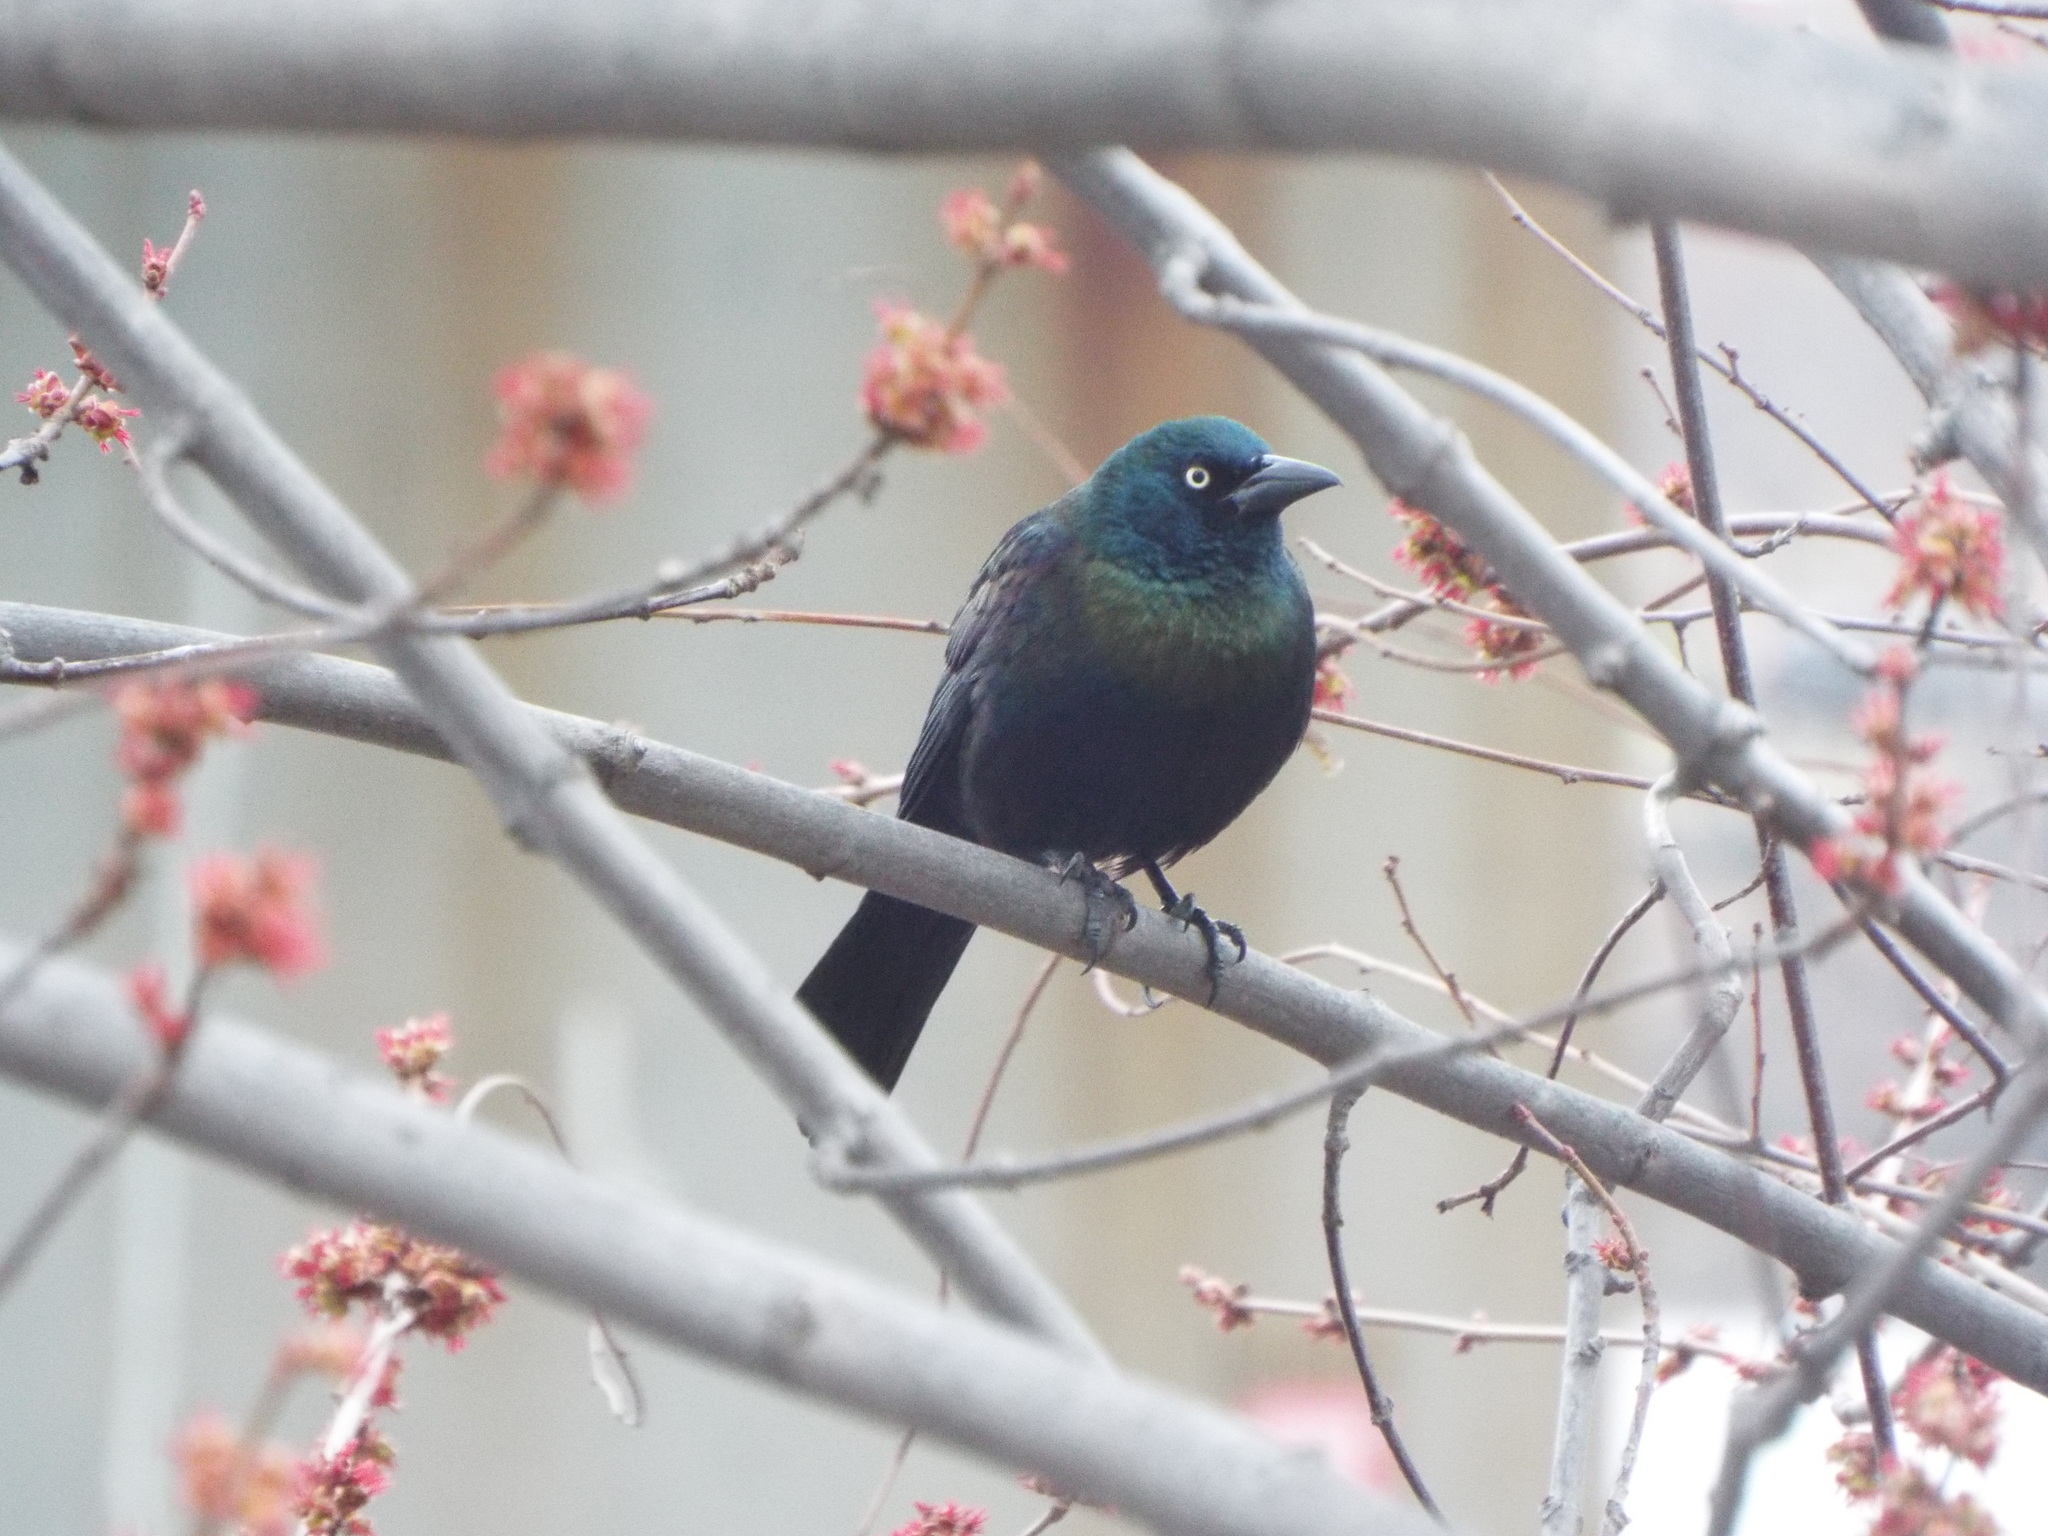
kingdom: Animalia
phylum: Chordata
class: Aves
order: Passeriformes
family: Icteridae
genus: Quiscalus
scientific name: Quiscalus quiscula
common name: Common grackle
